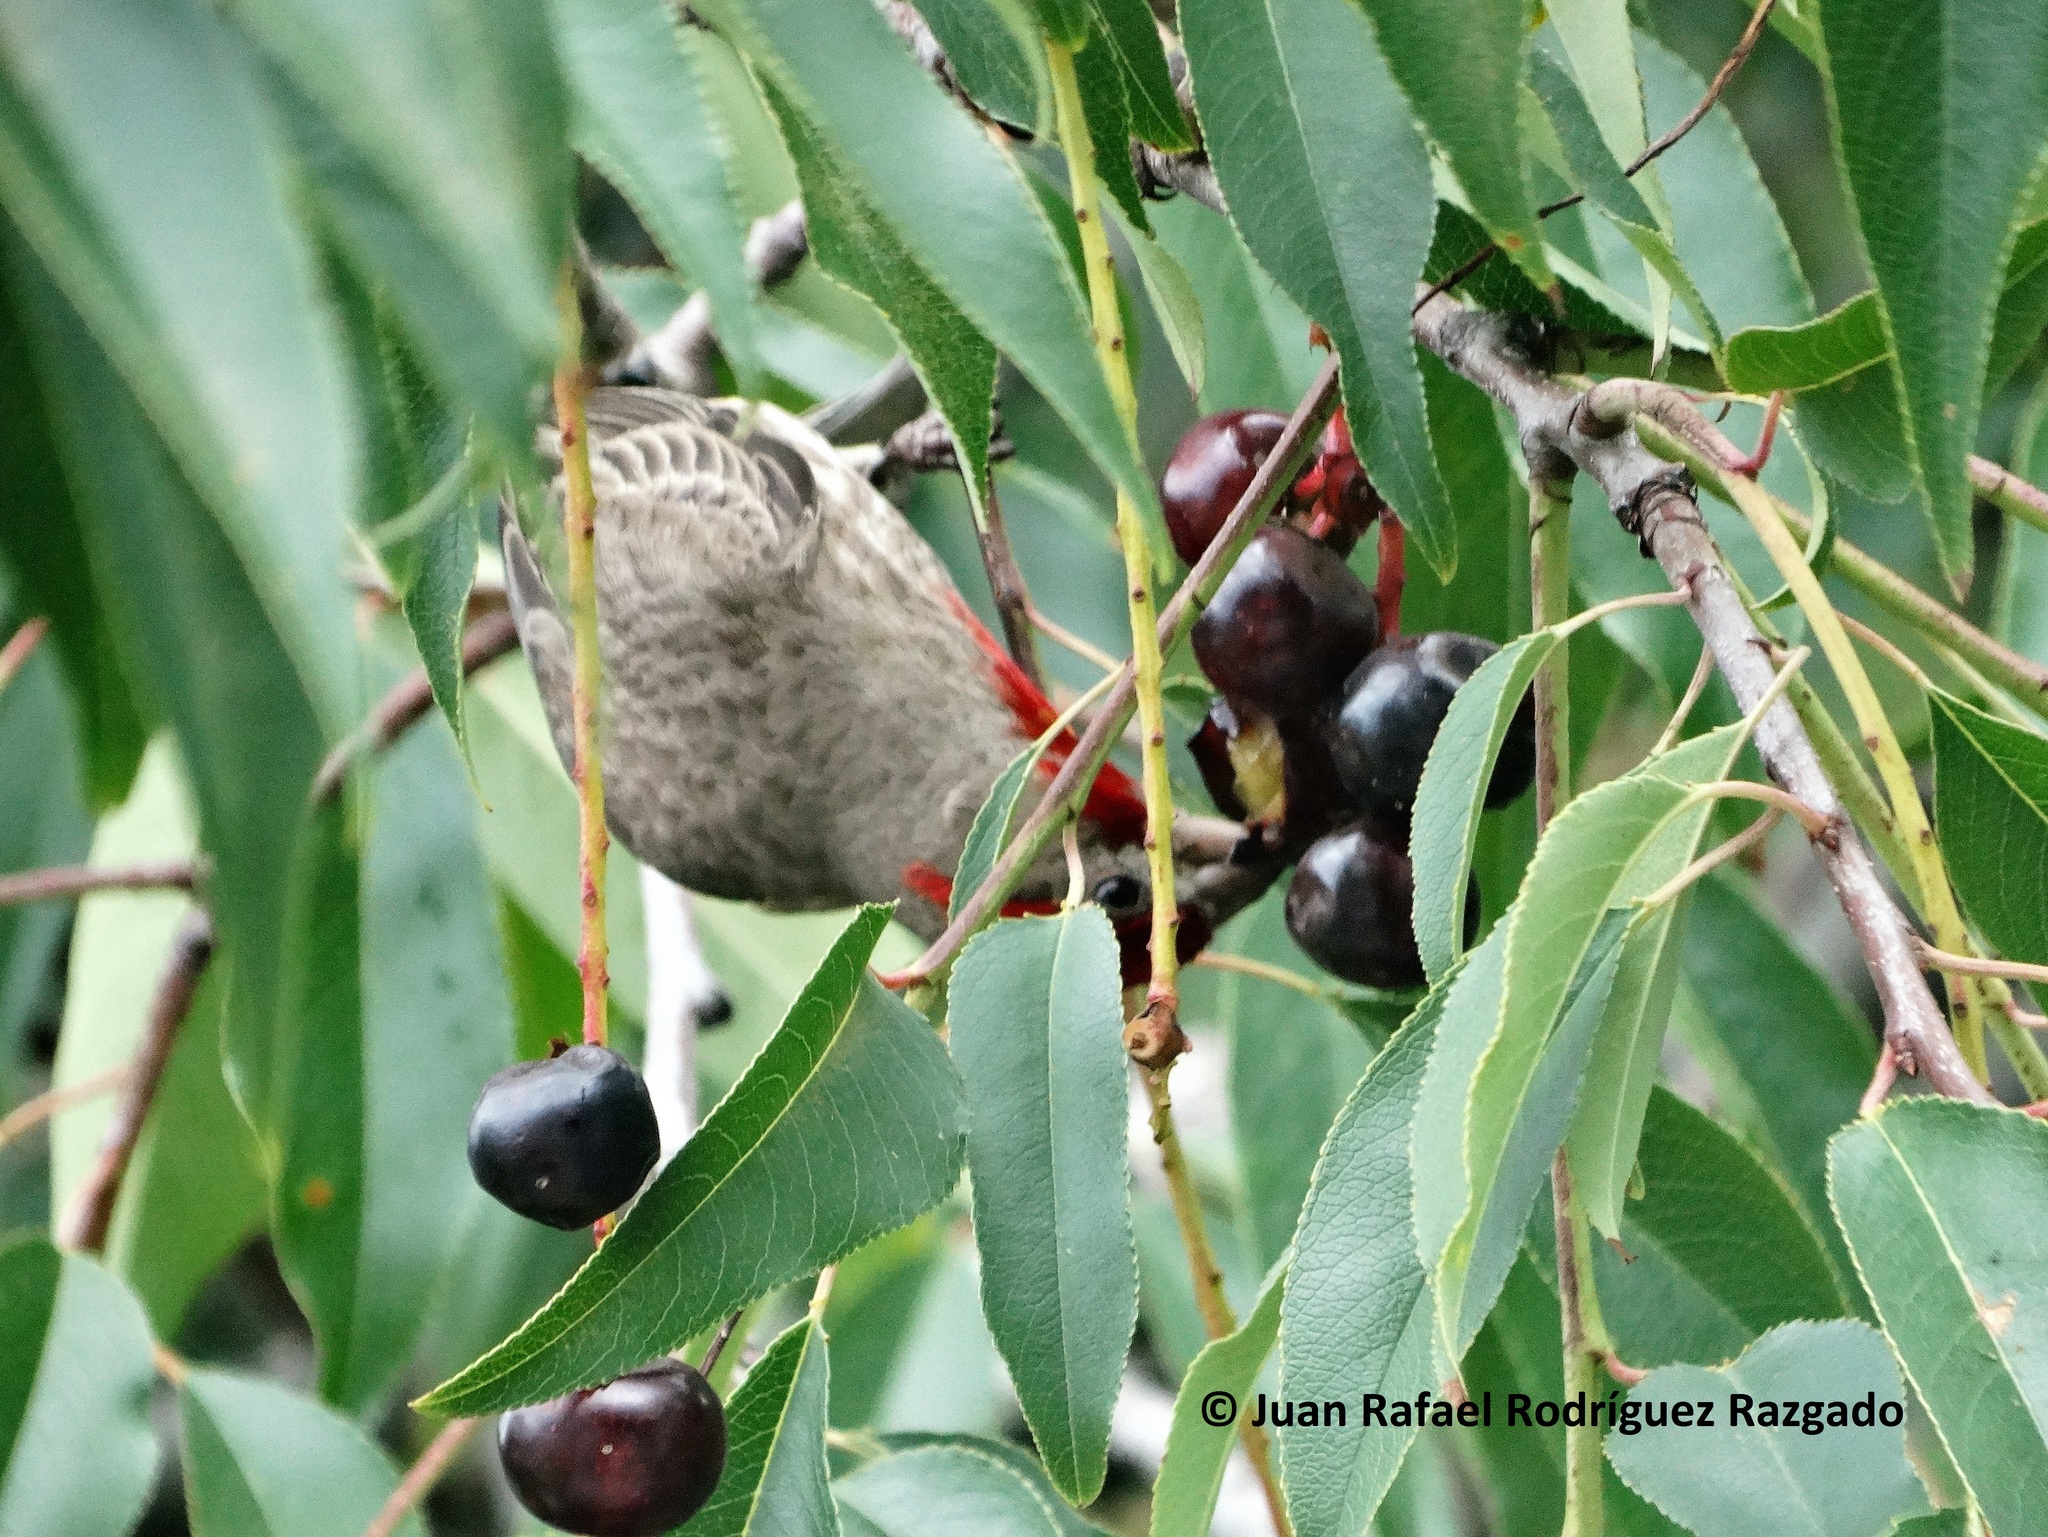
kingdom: Animalia
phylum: Chordata
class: Aves
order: Passeriformes
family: Fringillidae
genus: Haemorhous
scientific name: Haemorhous mexicanus
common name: House finch
